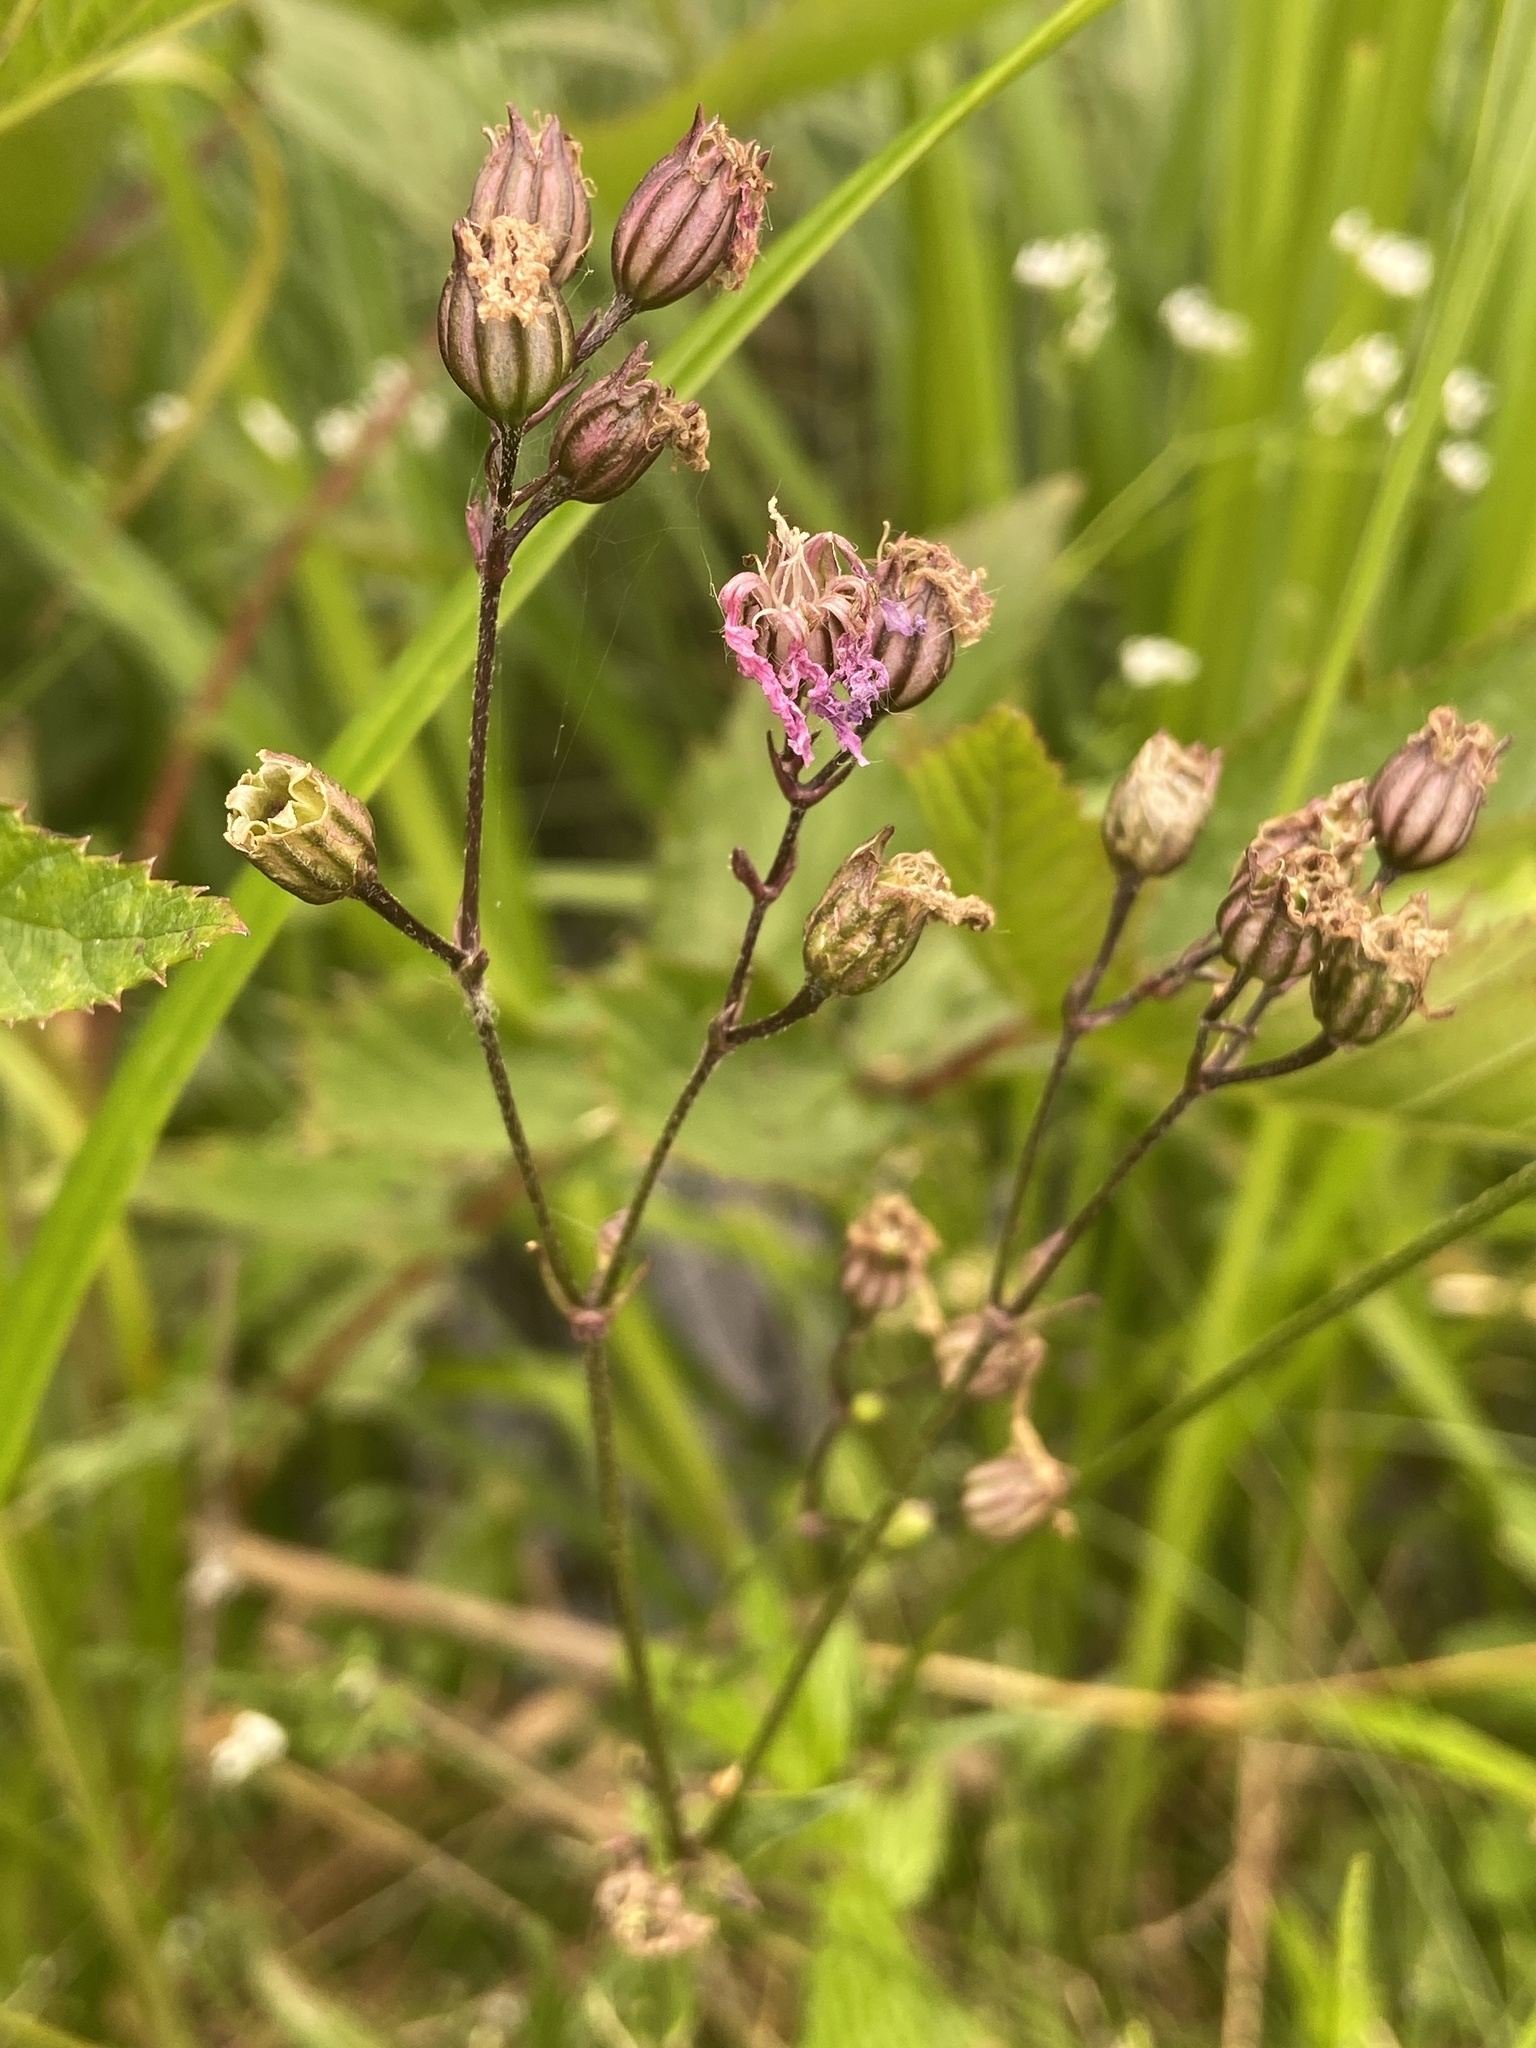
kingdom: Plantae
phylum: Tracheophyta
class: Magnoliopsida
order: Caryophyllales
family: Caryophyllaceae
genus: Silene
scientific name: Silene flos-cuculi
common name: Ragged-robin
